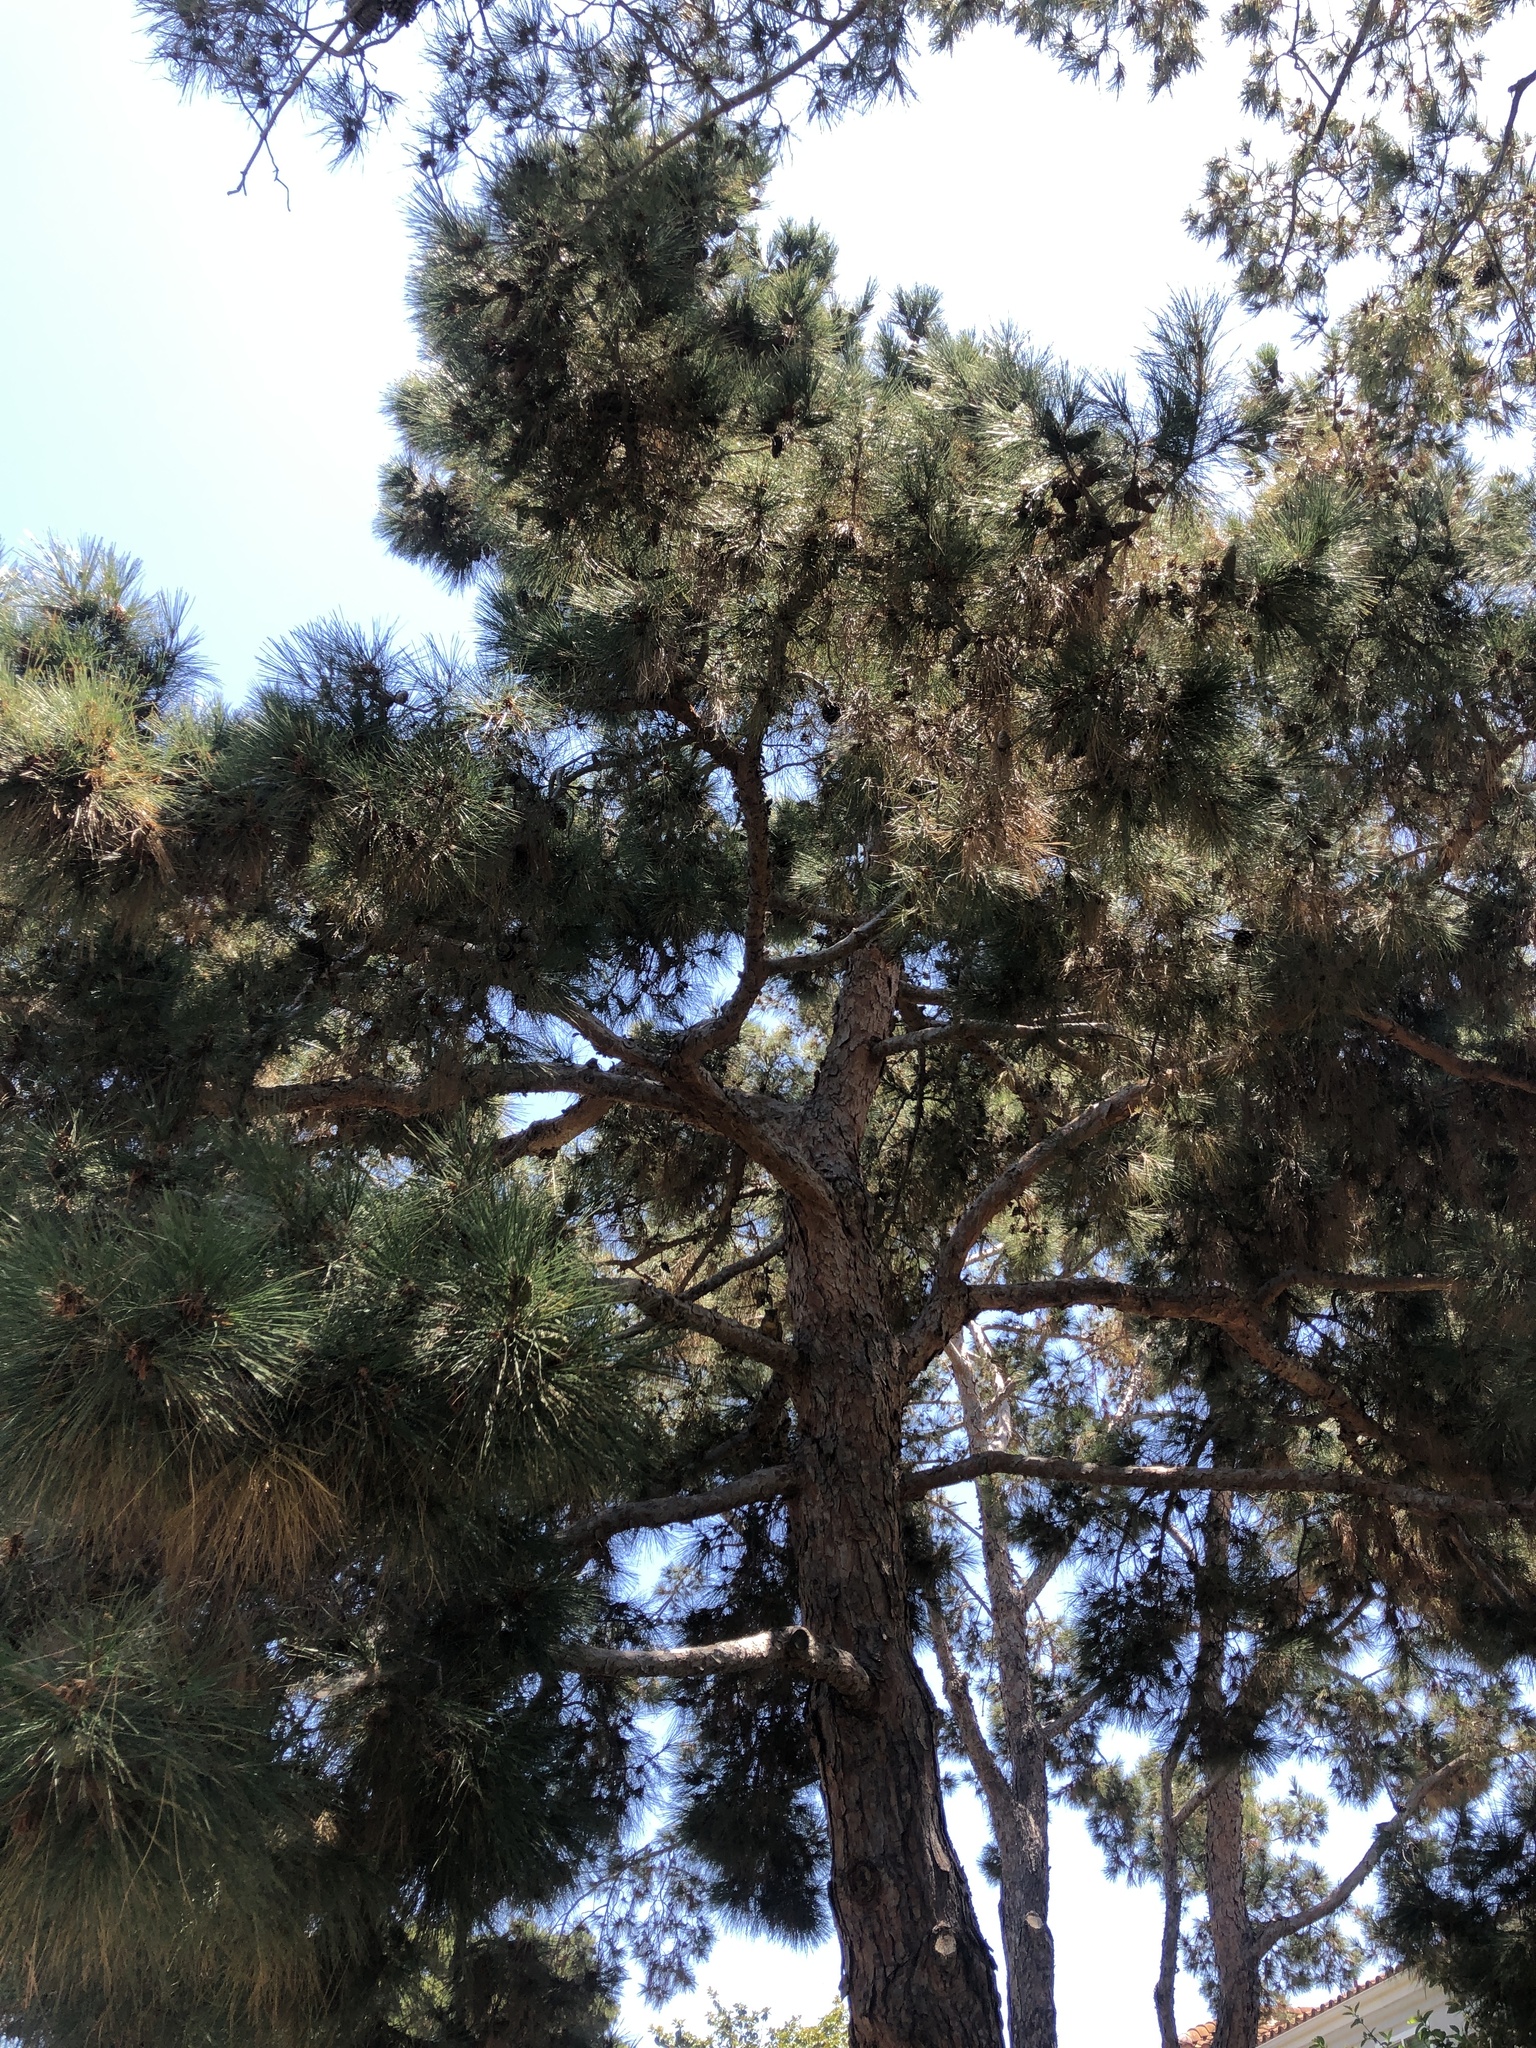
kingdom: Animalia
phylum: Chordata
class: Mammalia
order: Rodentia
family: Sciuridae
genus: Sciurus
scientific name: Sciurus niger
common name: Fox squirrel
